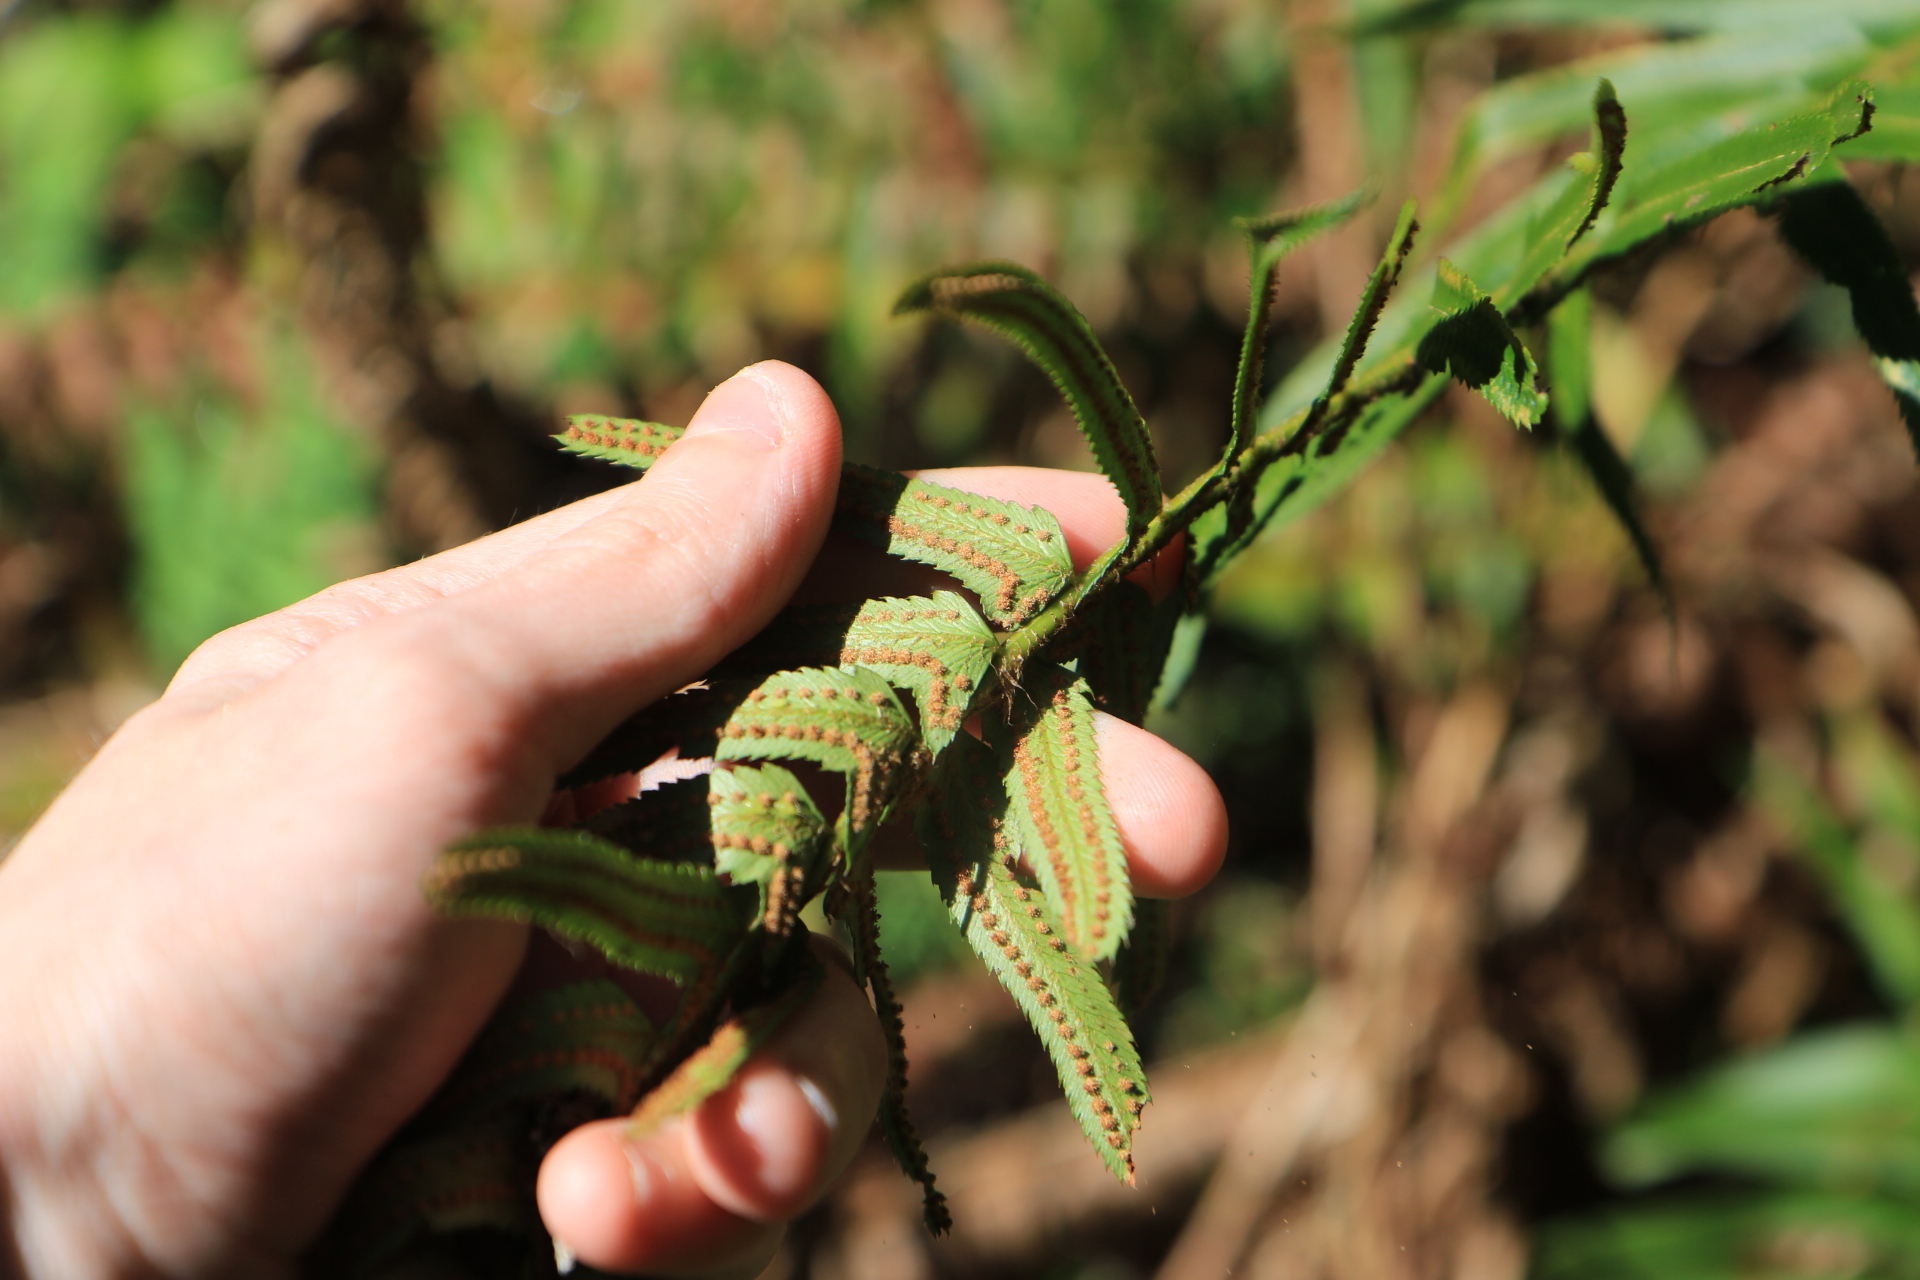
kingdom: Plantae
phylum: Tracheophyta
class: Polypodiopsida
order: Polypodiales
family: Dryopteridaceae
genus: Polystichum
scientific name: Polystichum munitum
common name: Western sword-fern
